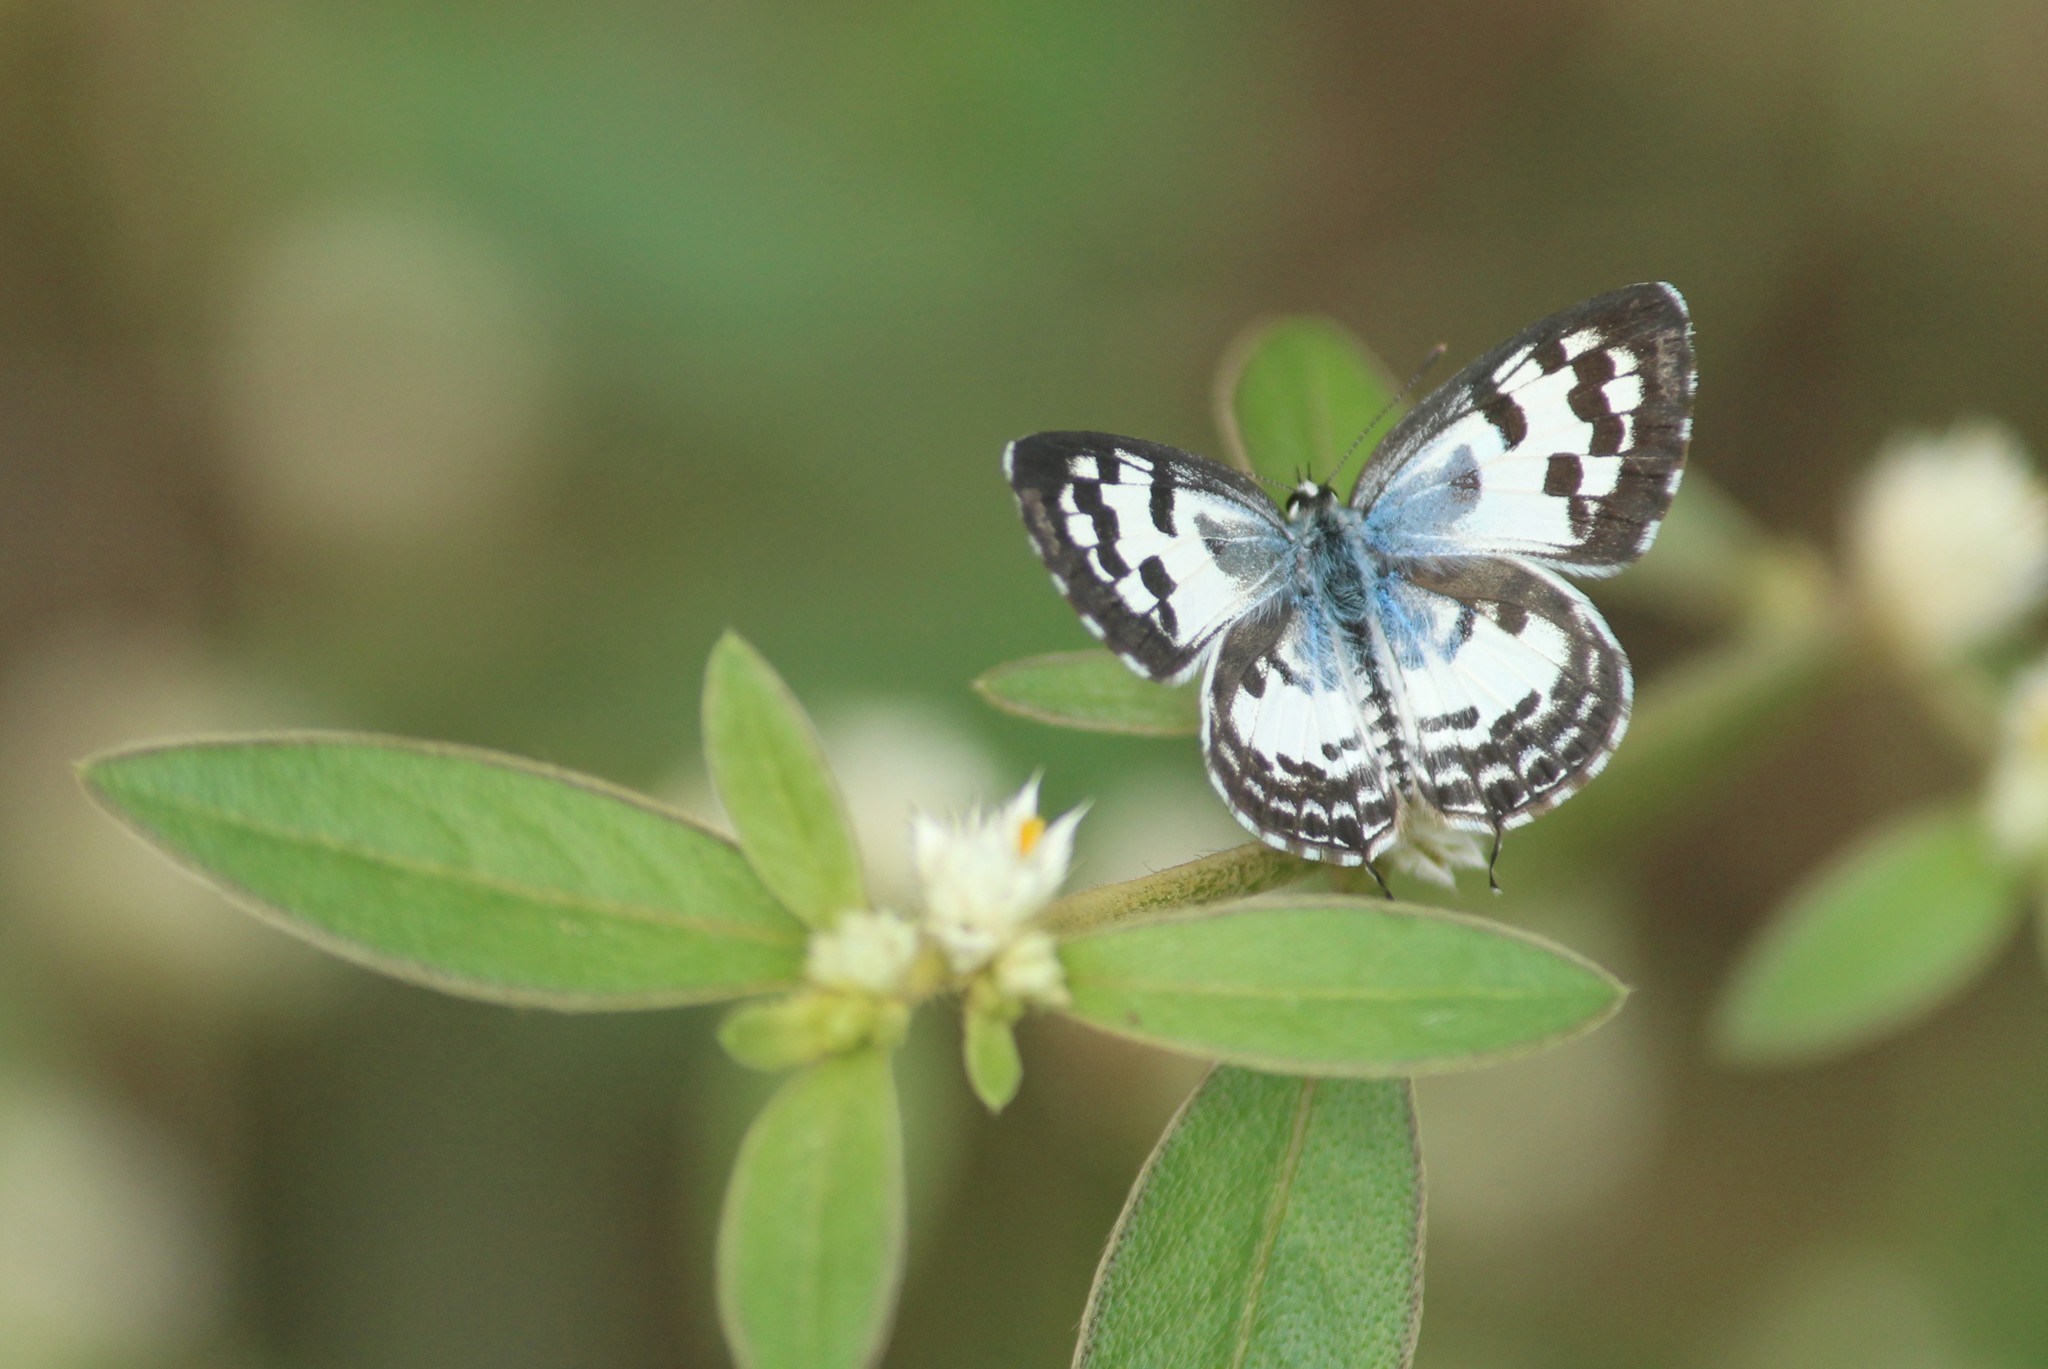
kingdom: Animalia
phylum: Arthropoda
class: Insecta
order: Lepidoptera
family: Lycaenidae
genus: Castalius
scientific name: Castalius rosimon
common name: Common pierrot
